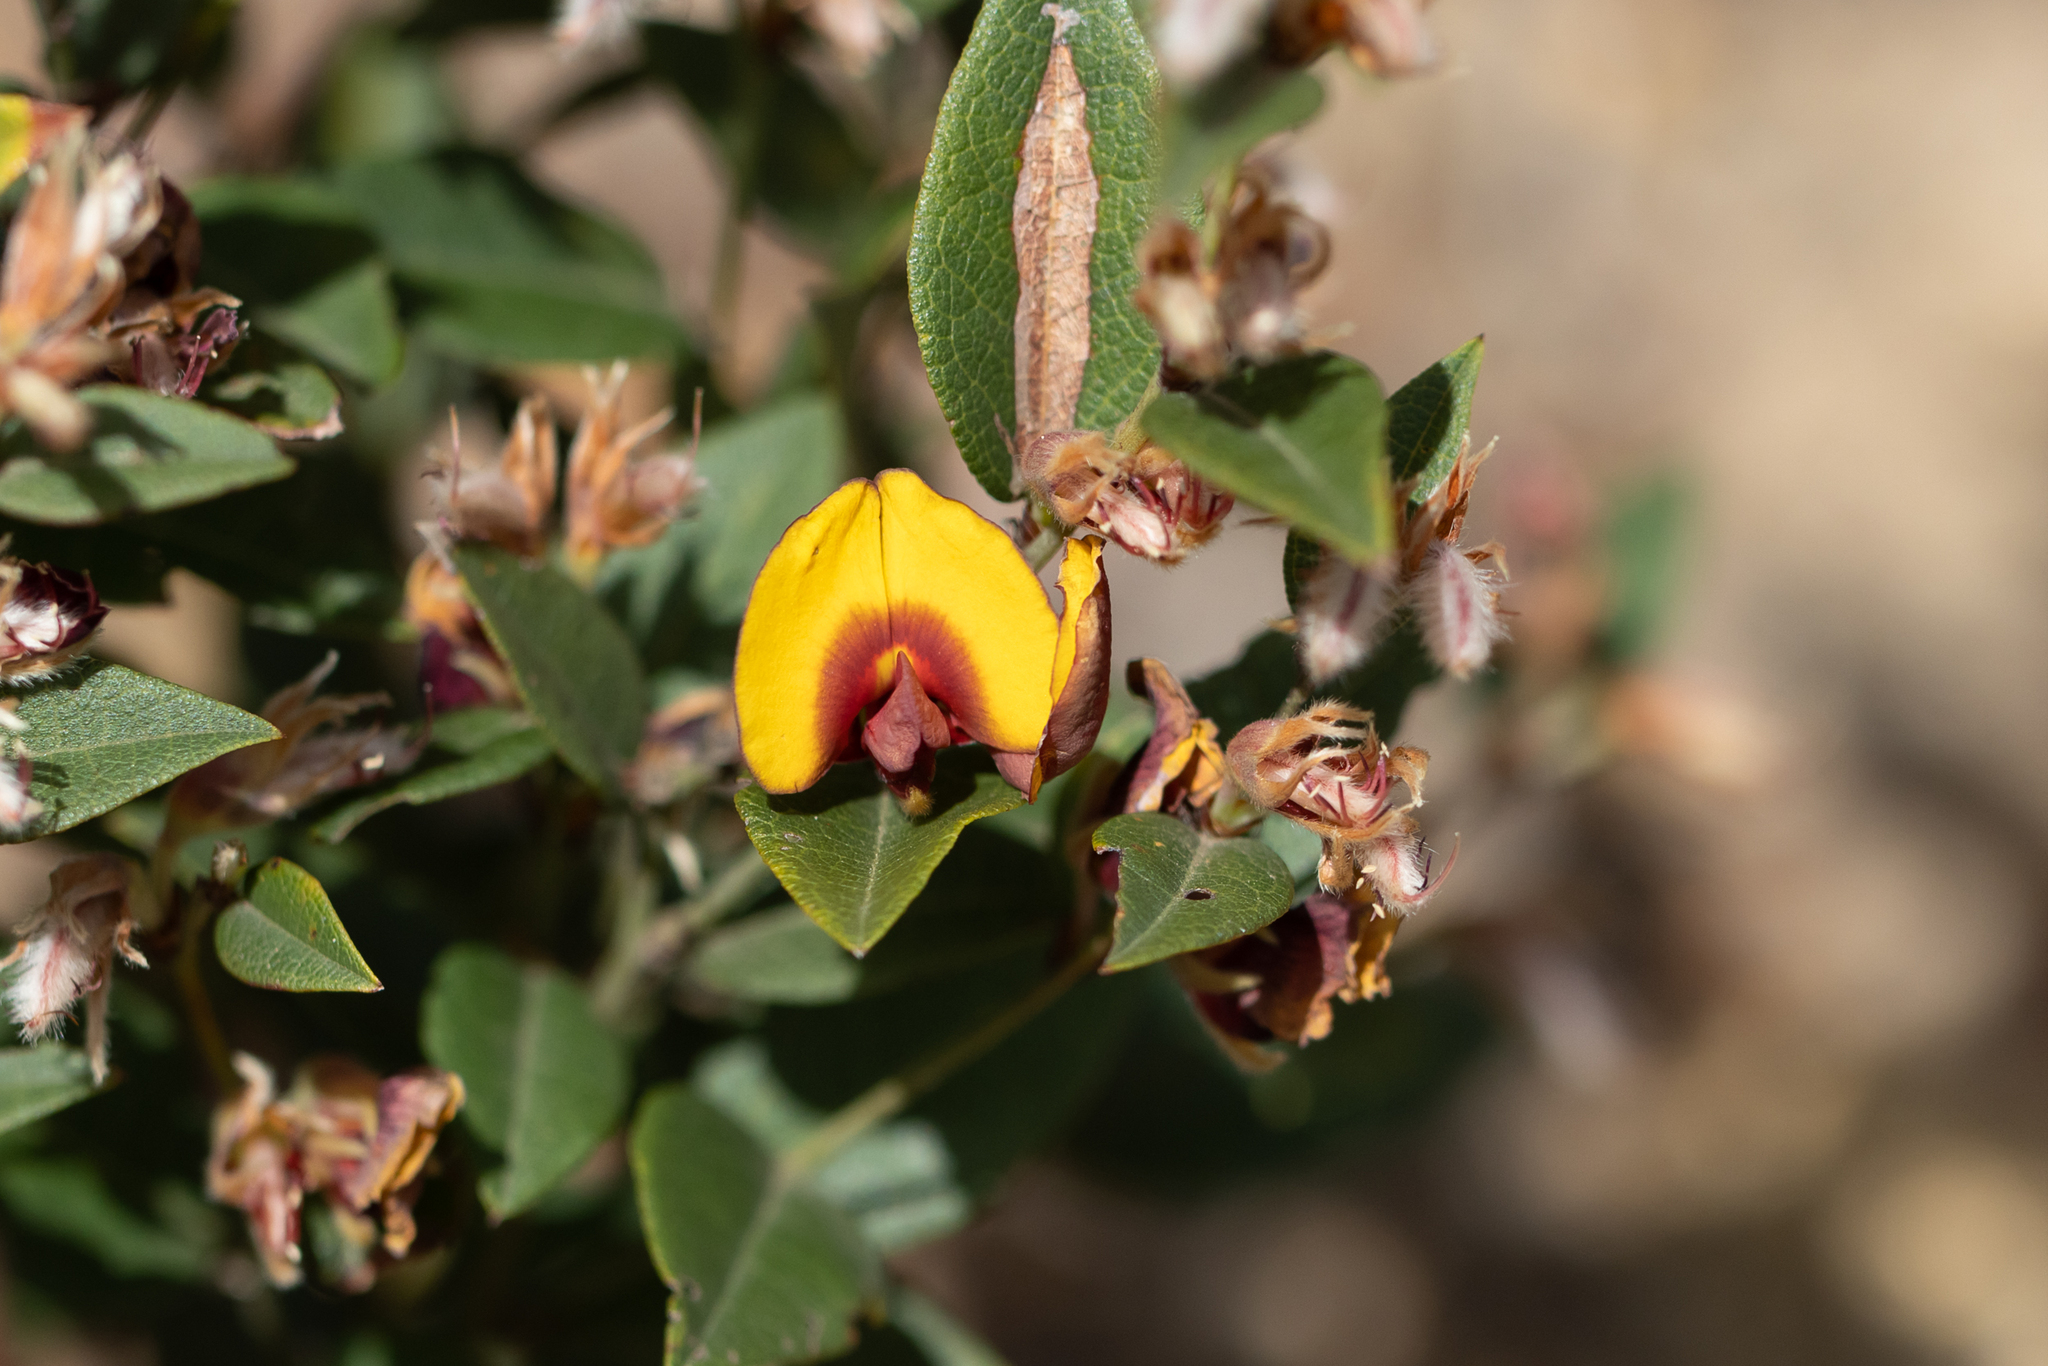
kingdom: Plantae
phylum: Tracheophyta
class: Magnoliopsida
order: Fabales
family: Fabaceae
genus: Bossiaea
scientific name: Bossiaea ornata
